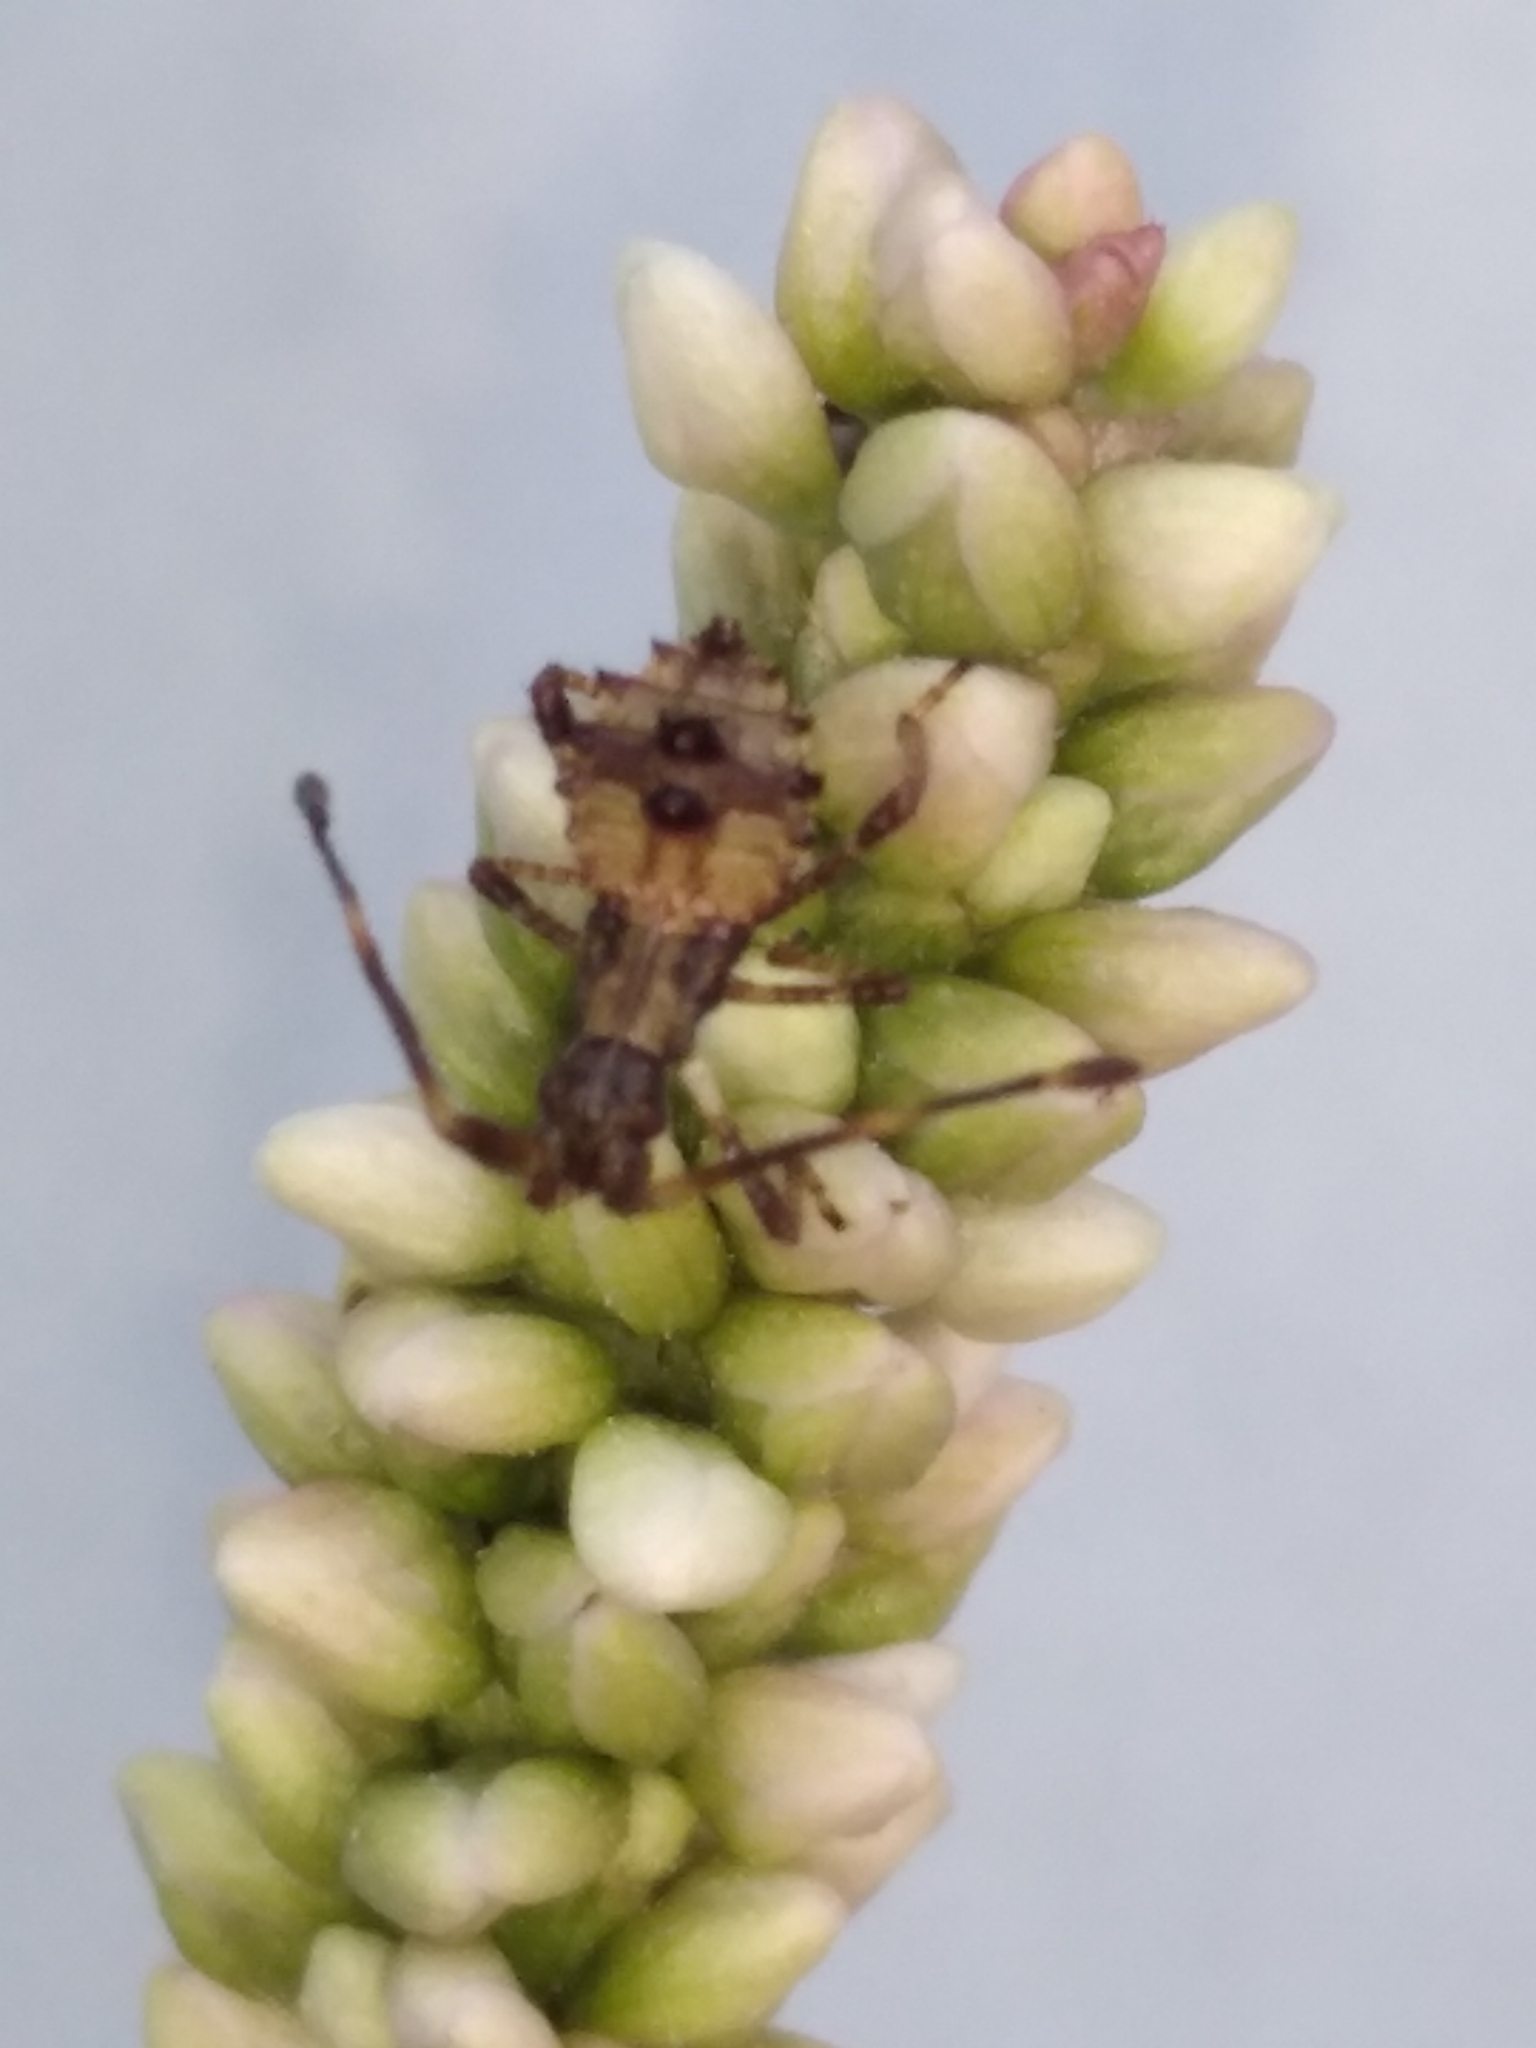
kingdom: Animalia
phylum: Arthropoda
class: Insecta
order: Hemiptera
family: Coreidae
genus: Coreus
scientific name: Coreus marginatus
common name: Dock bug
